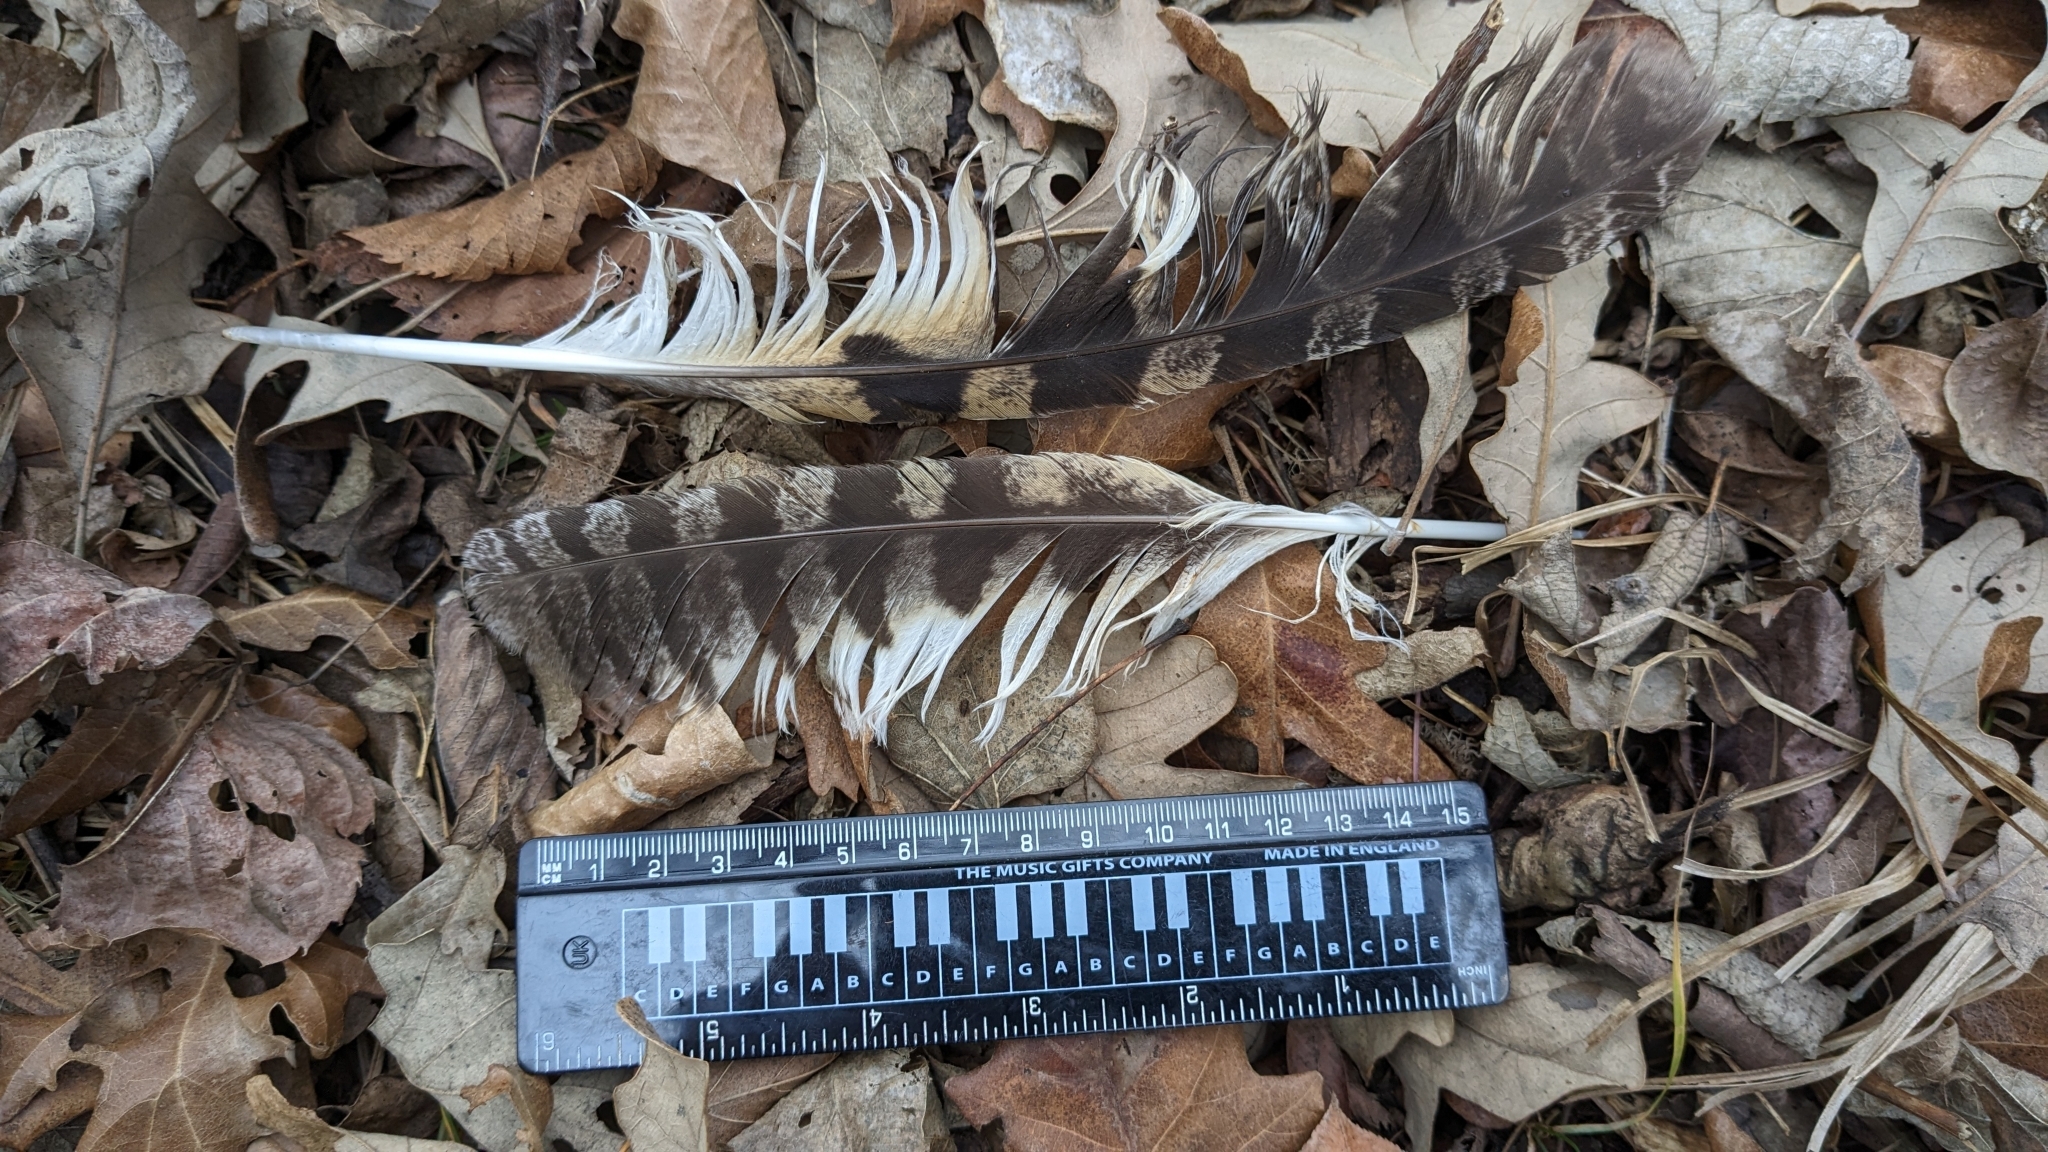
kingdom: Animalia
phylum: Chordata
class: Aves
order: Strigiformes
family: Strigidae
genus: Asio
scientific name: Asio otus
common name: Long-eared owl
